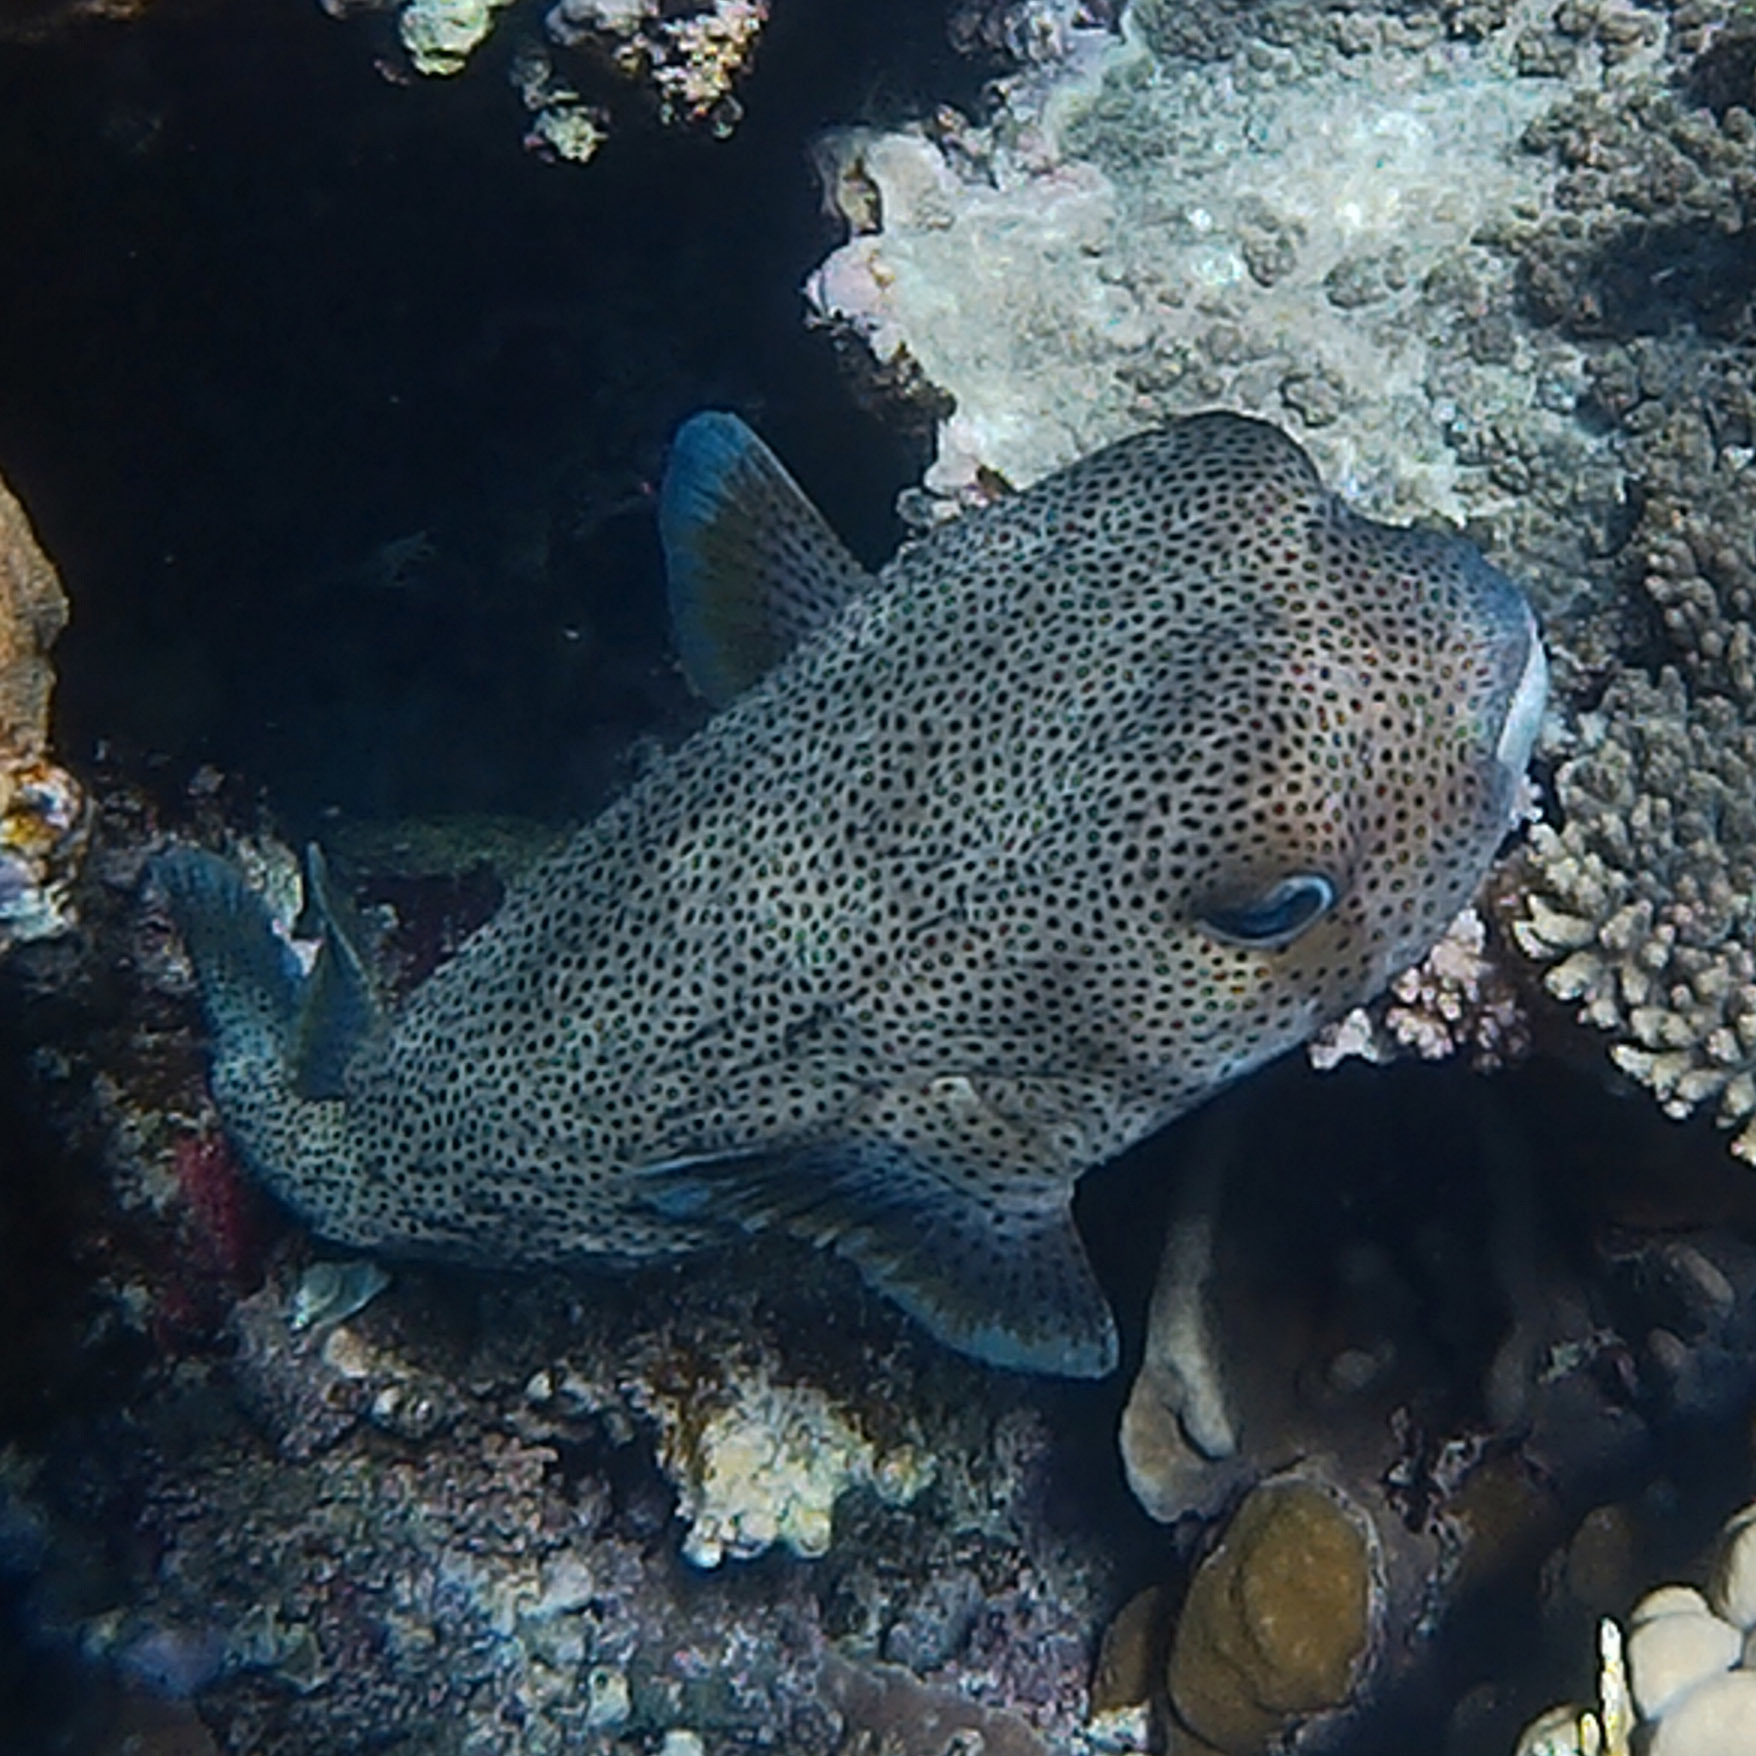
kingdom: Animalia
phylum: Chordata
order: Tetraodontiformes
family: Diodontidae
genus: Diodon
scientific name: Diodon hystrix
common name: Giant porcupinefish
